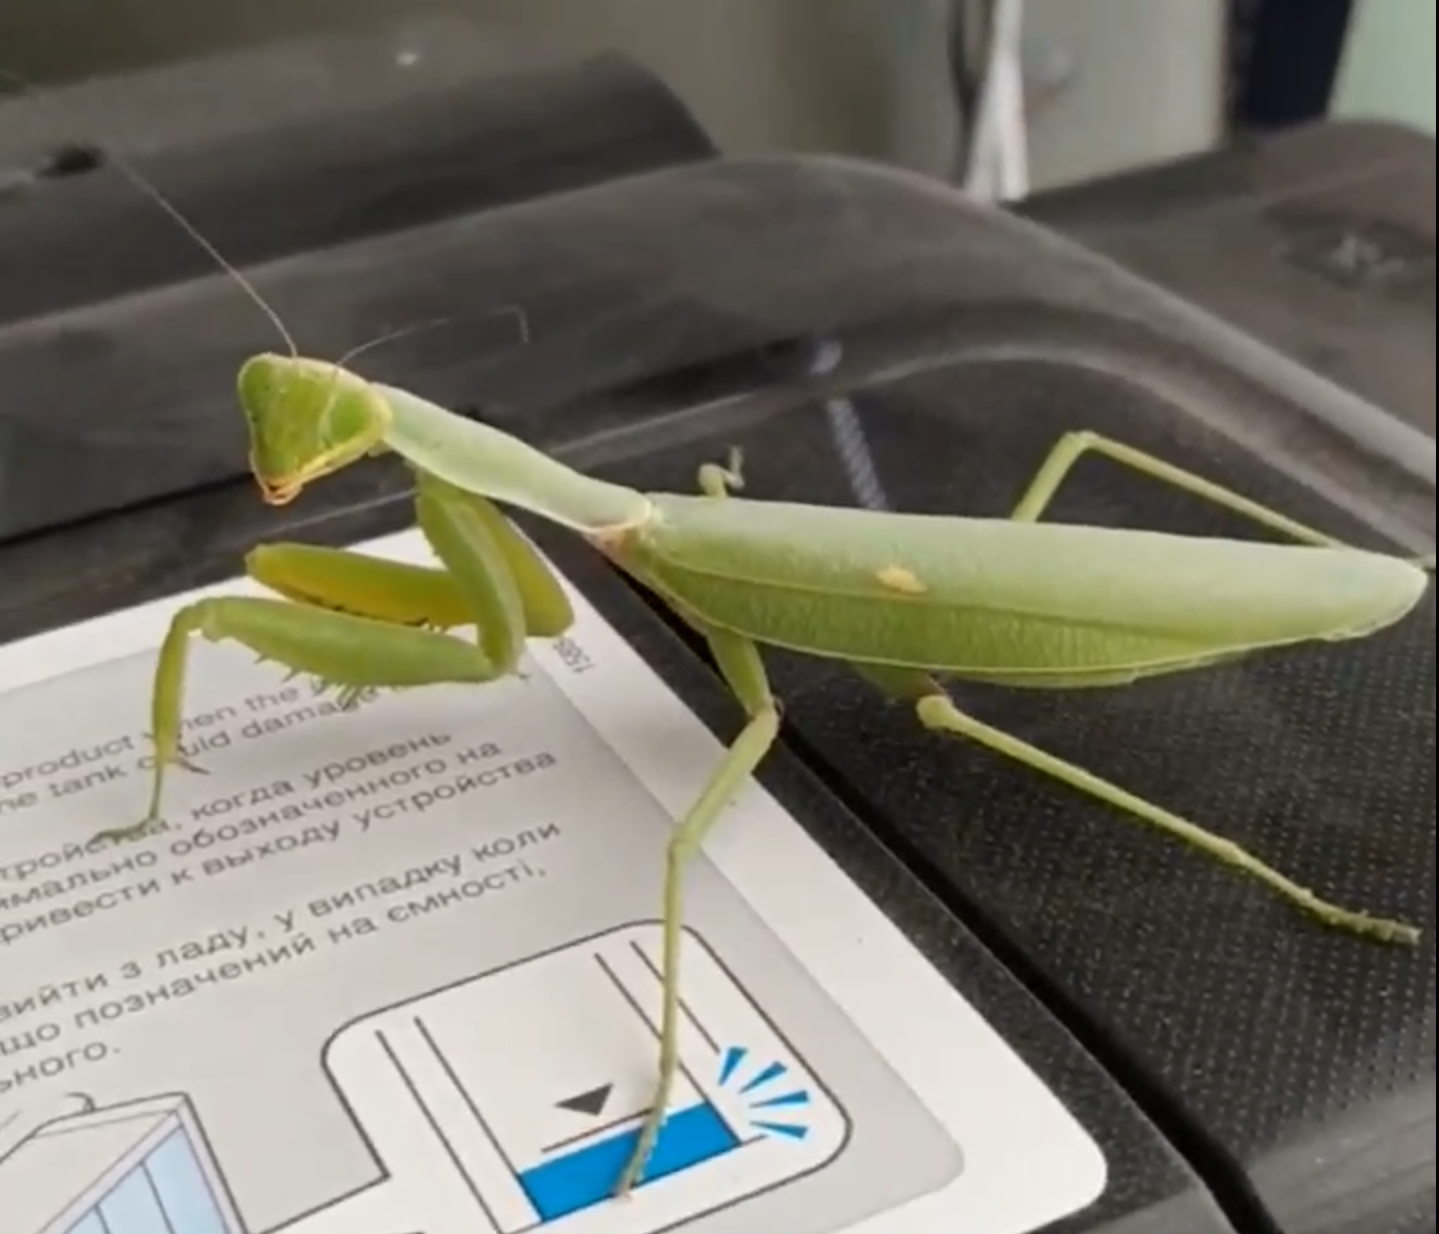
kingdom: Animalia
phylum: Arthropoda
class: Insecta
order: Mantodea
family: Mantidae
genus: Hierodula
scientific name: Hierodula tenuidentata
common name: Giant asian mantis
